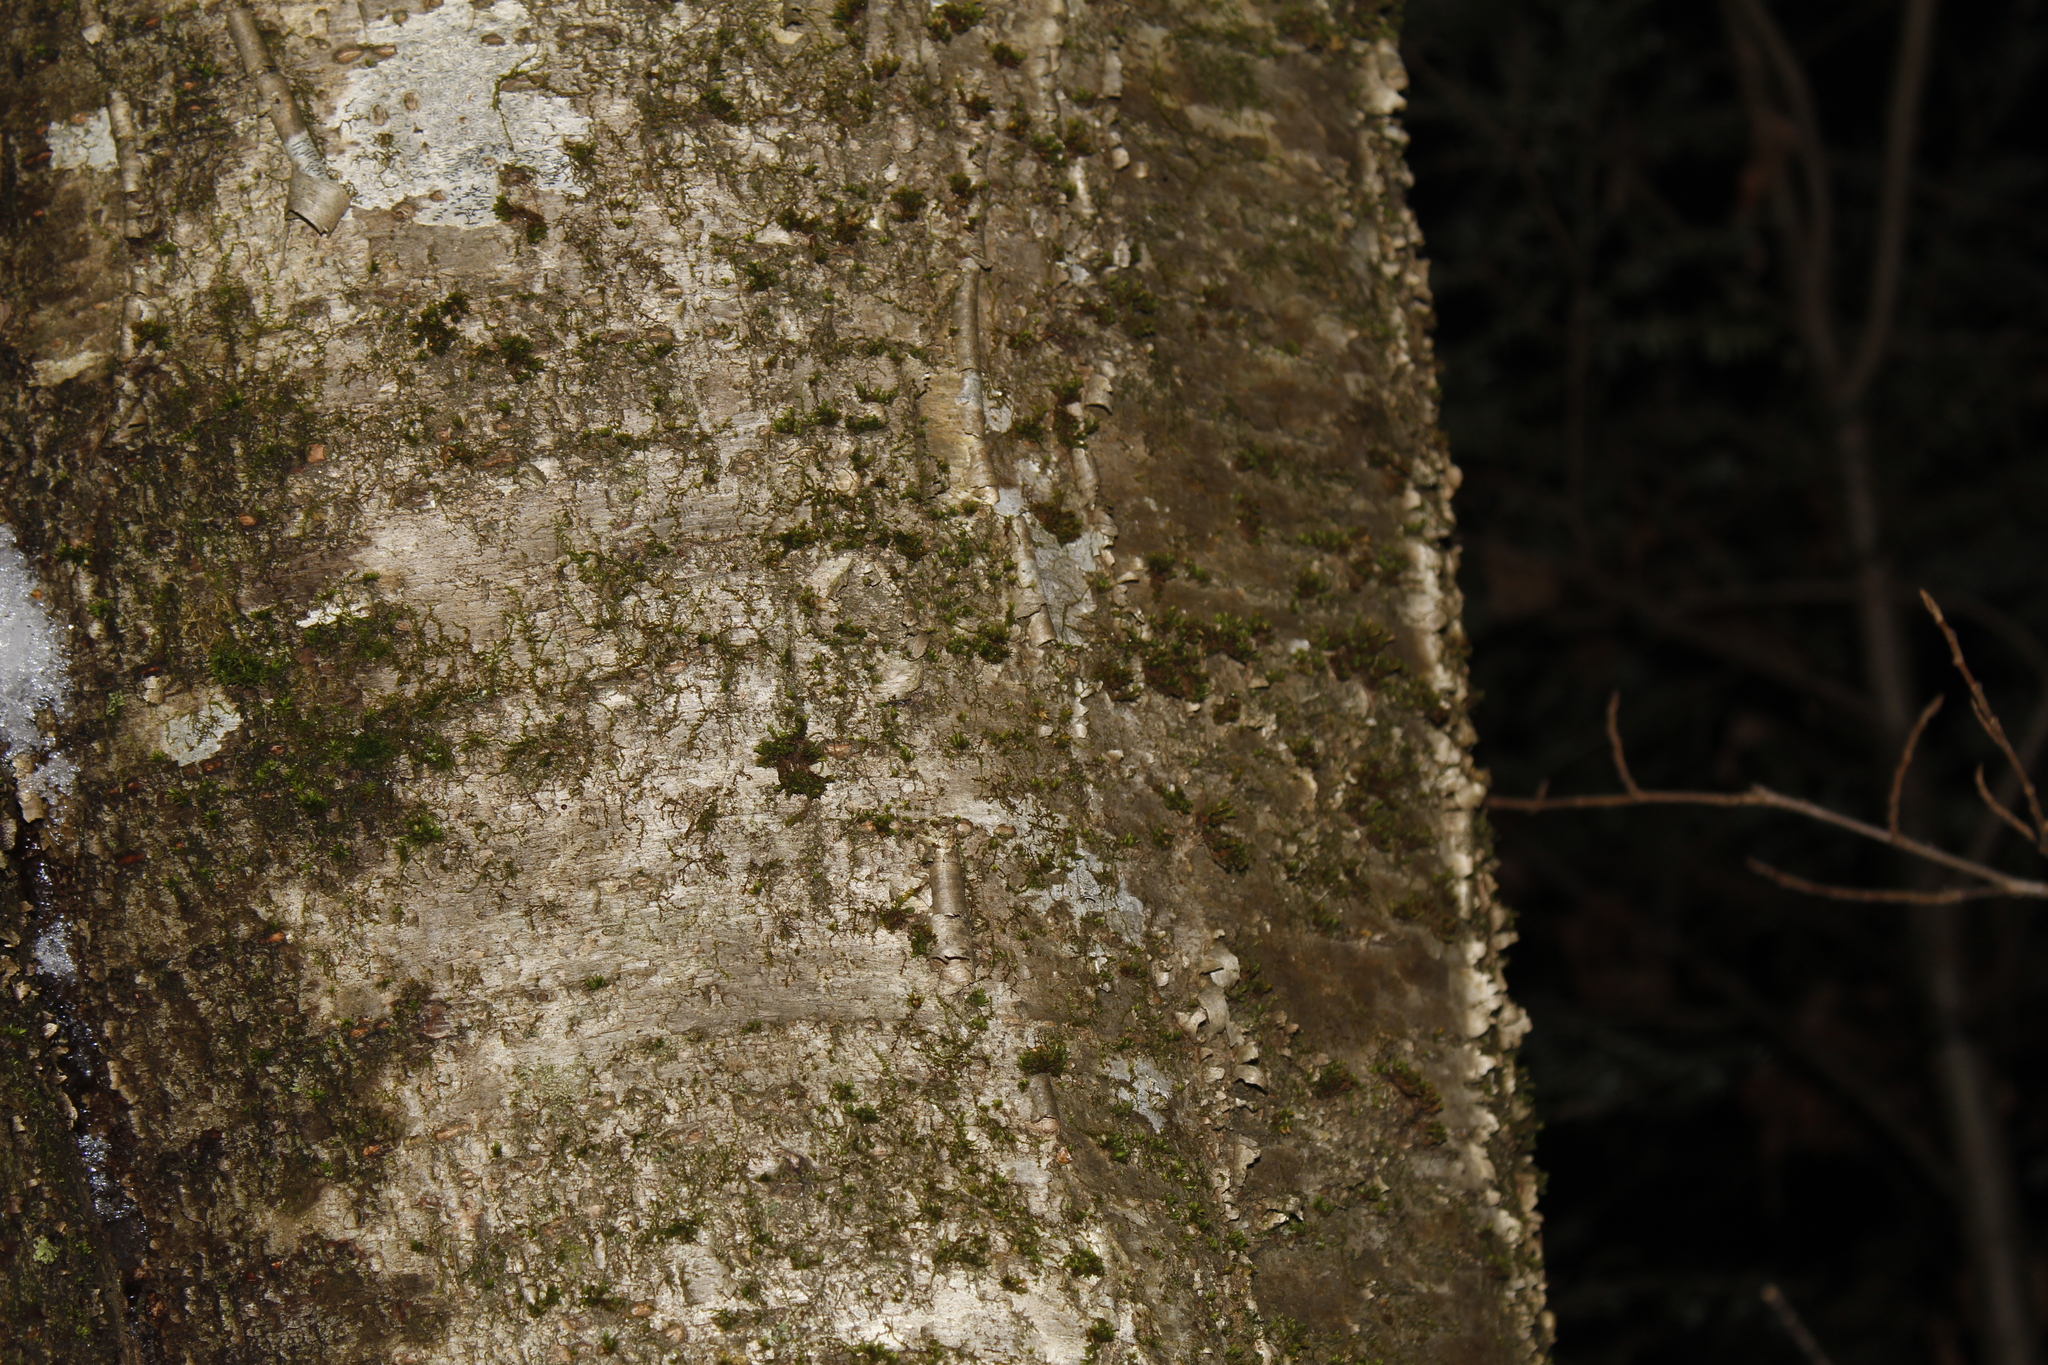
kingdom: Plantae
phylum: Tracheophyta
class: Magnoliopsida
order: Fagales
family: Betulaceae
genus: Betula
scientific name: Betula alleghaniensis
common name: Yellow birch
